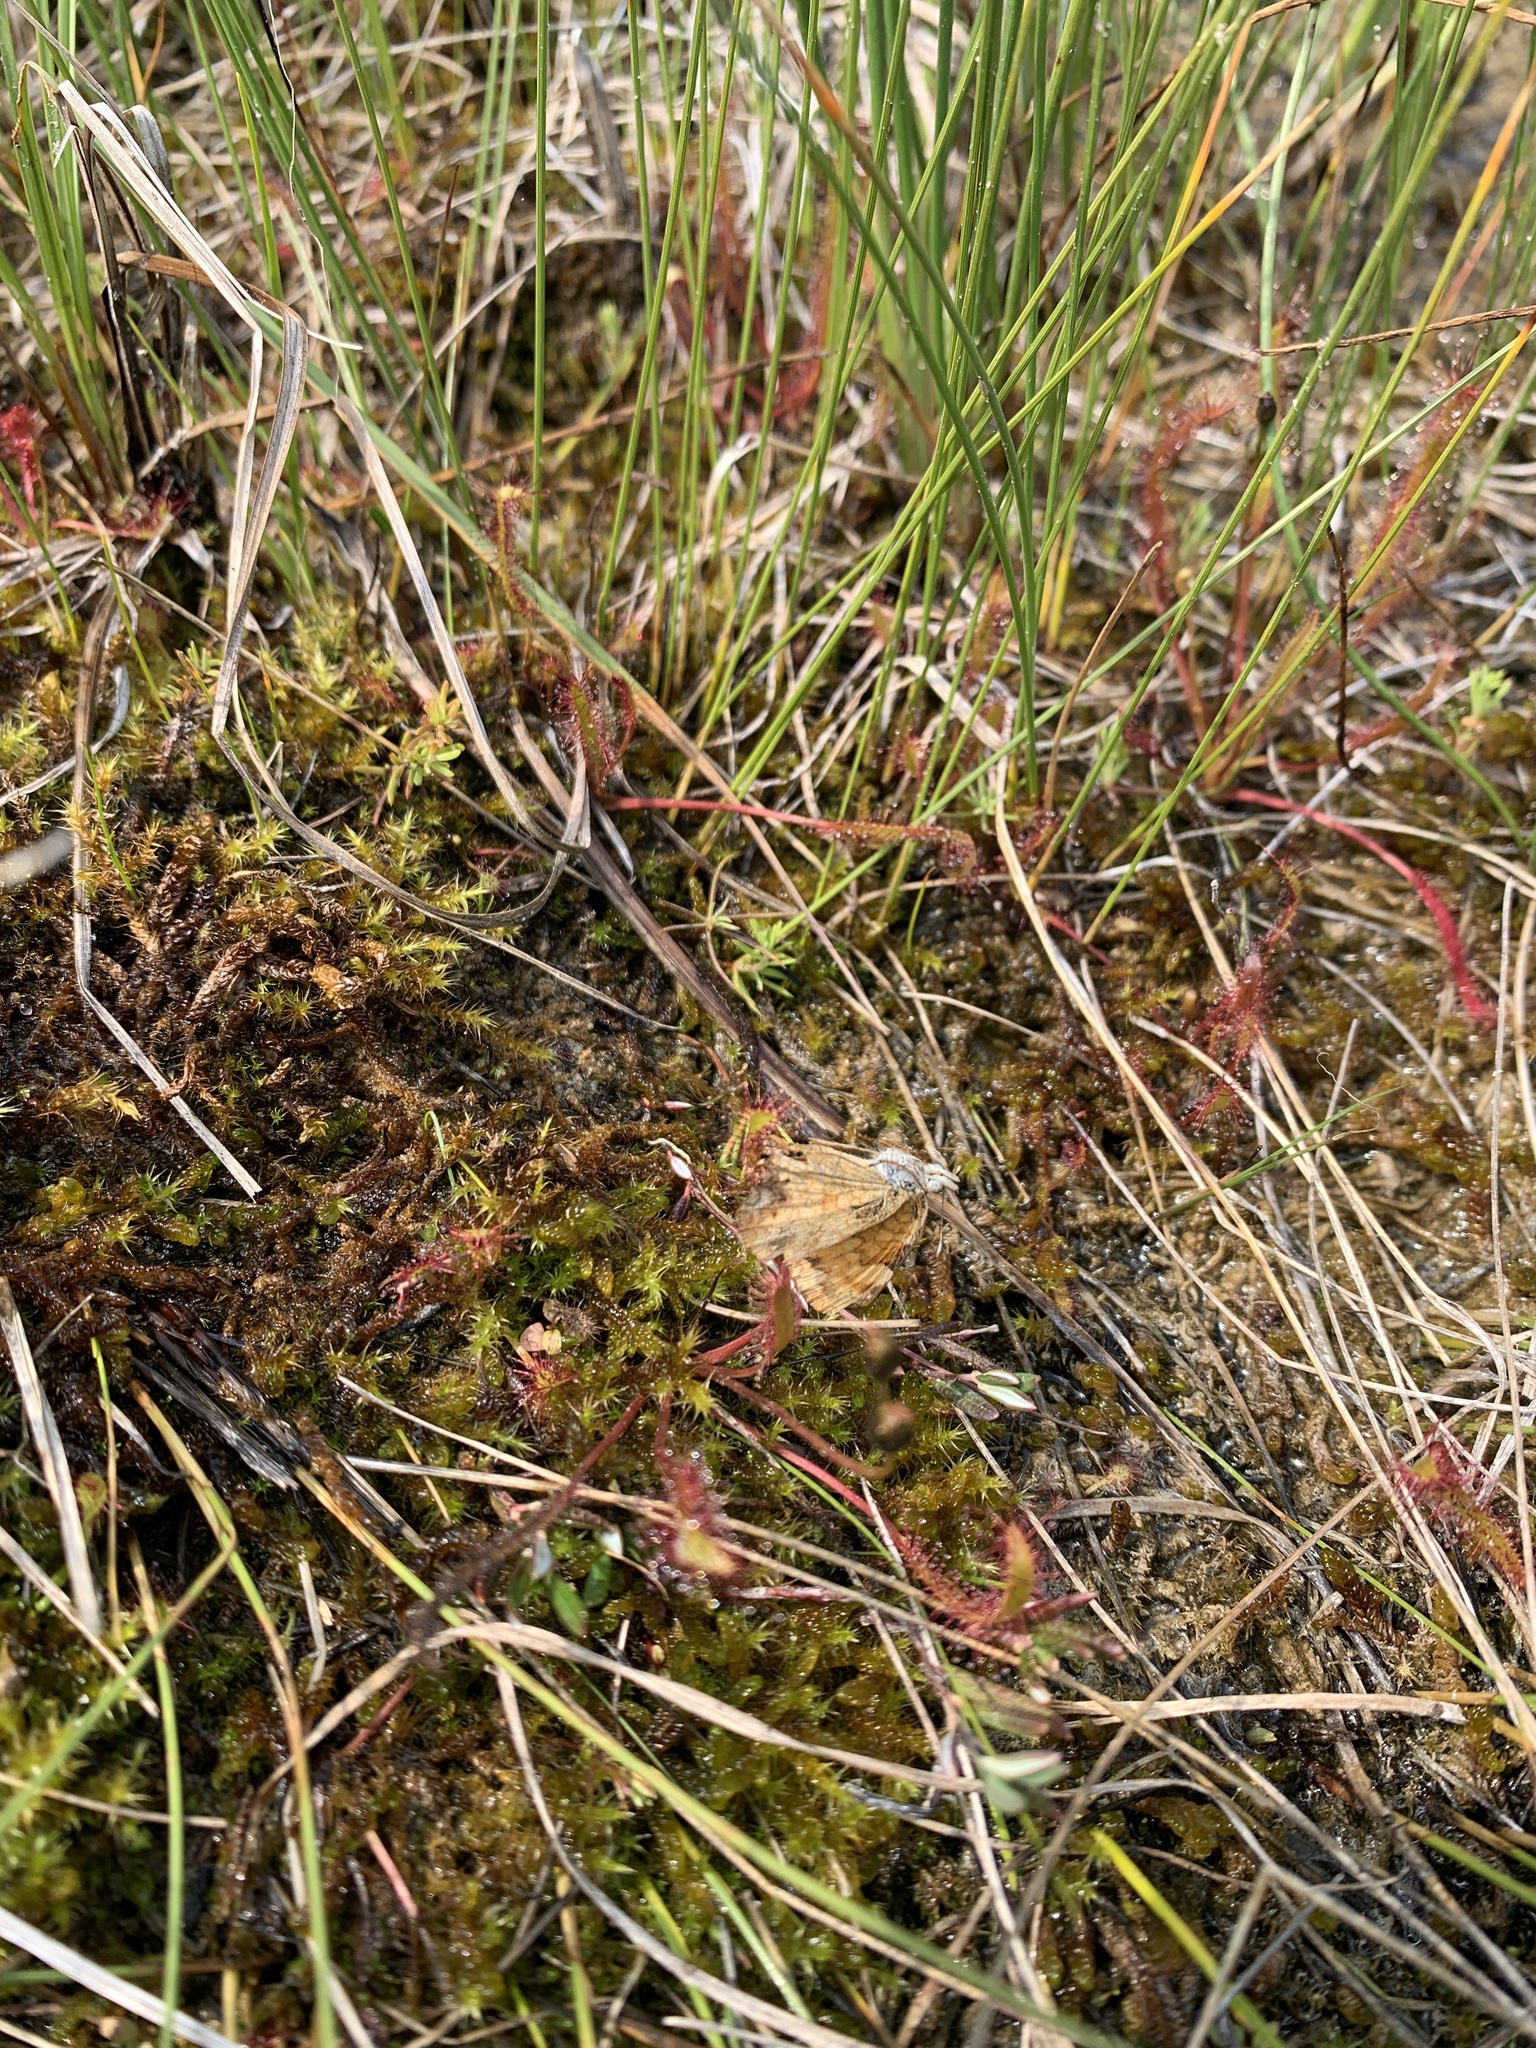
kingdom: Plantae
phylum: Tracheophyta
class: Magnoliopsida
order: Caryophyllales
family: Droseraceae
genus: Drosera
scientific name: Drosera anglica
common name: Great sundew
